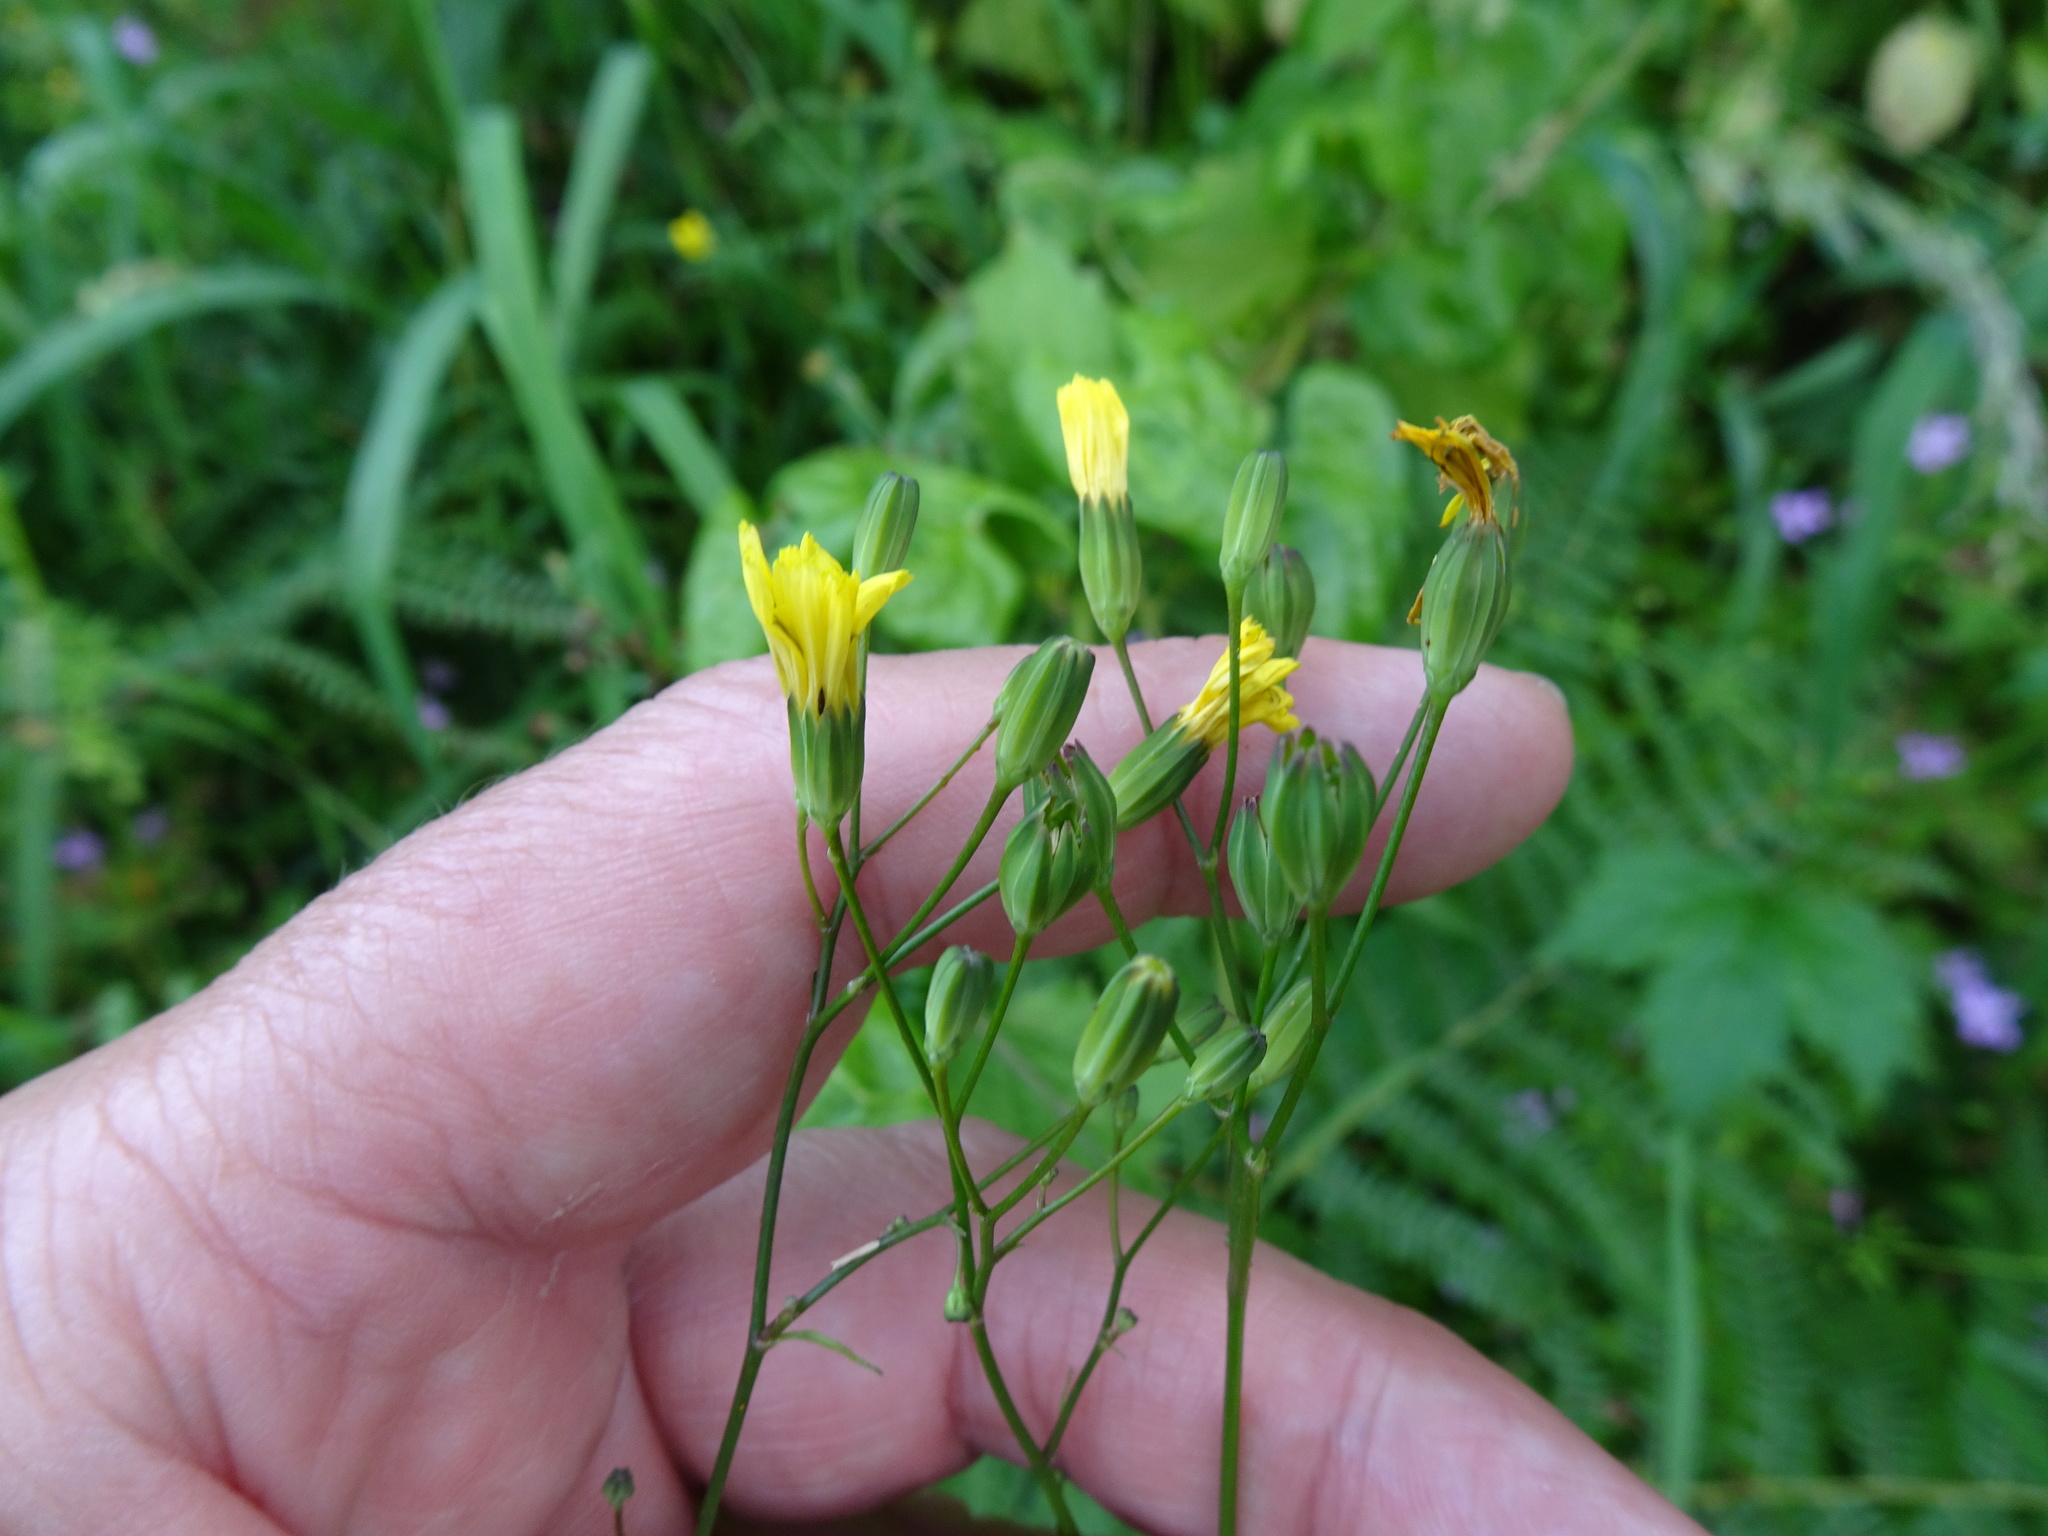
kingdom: Plantae
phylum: Tracheophyta
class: Magnoliopsida
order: Asterales
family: Asteraceae
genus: Lapsana
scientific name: Lapsana communis
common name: Nipplewort
